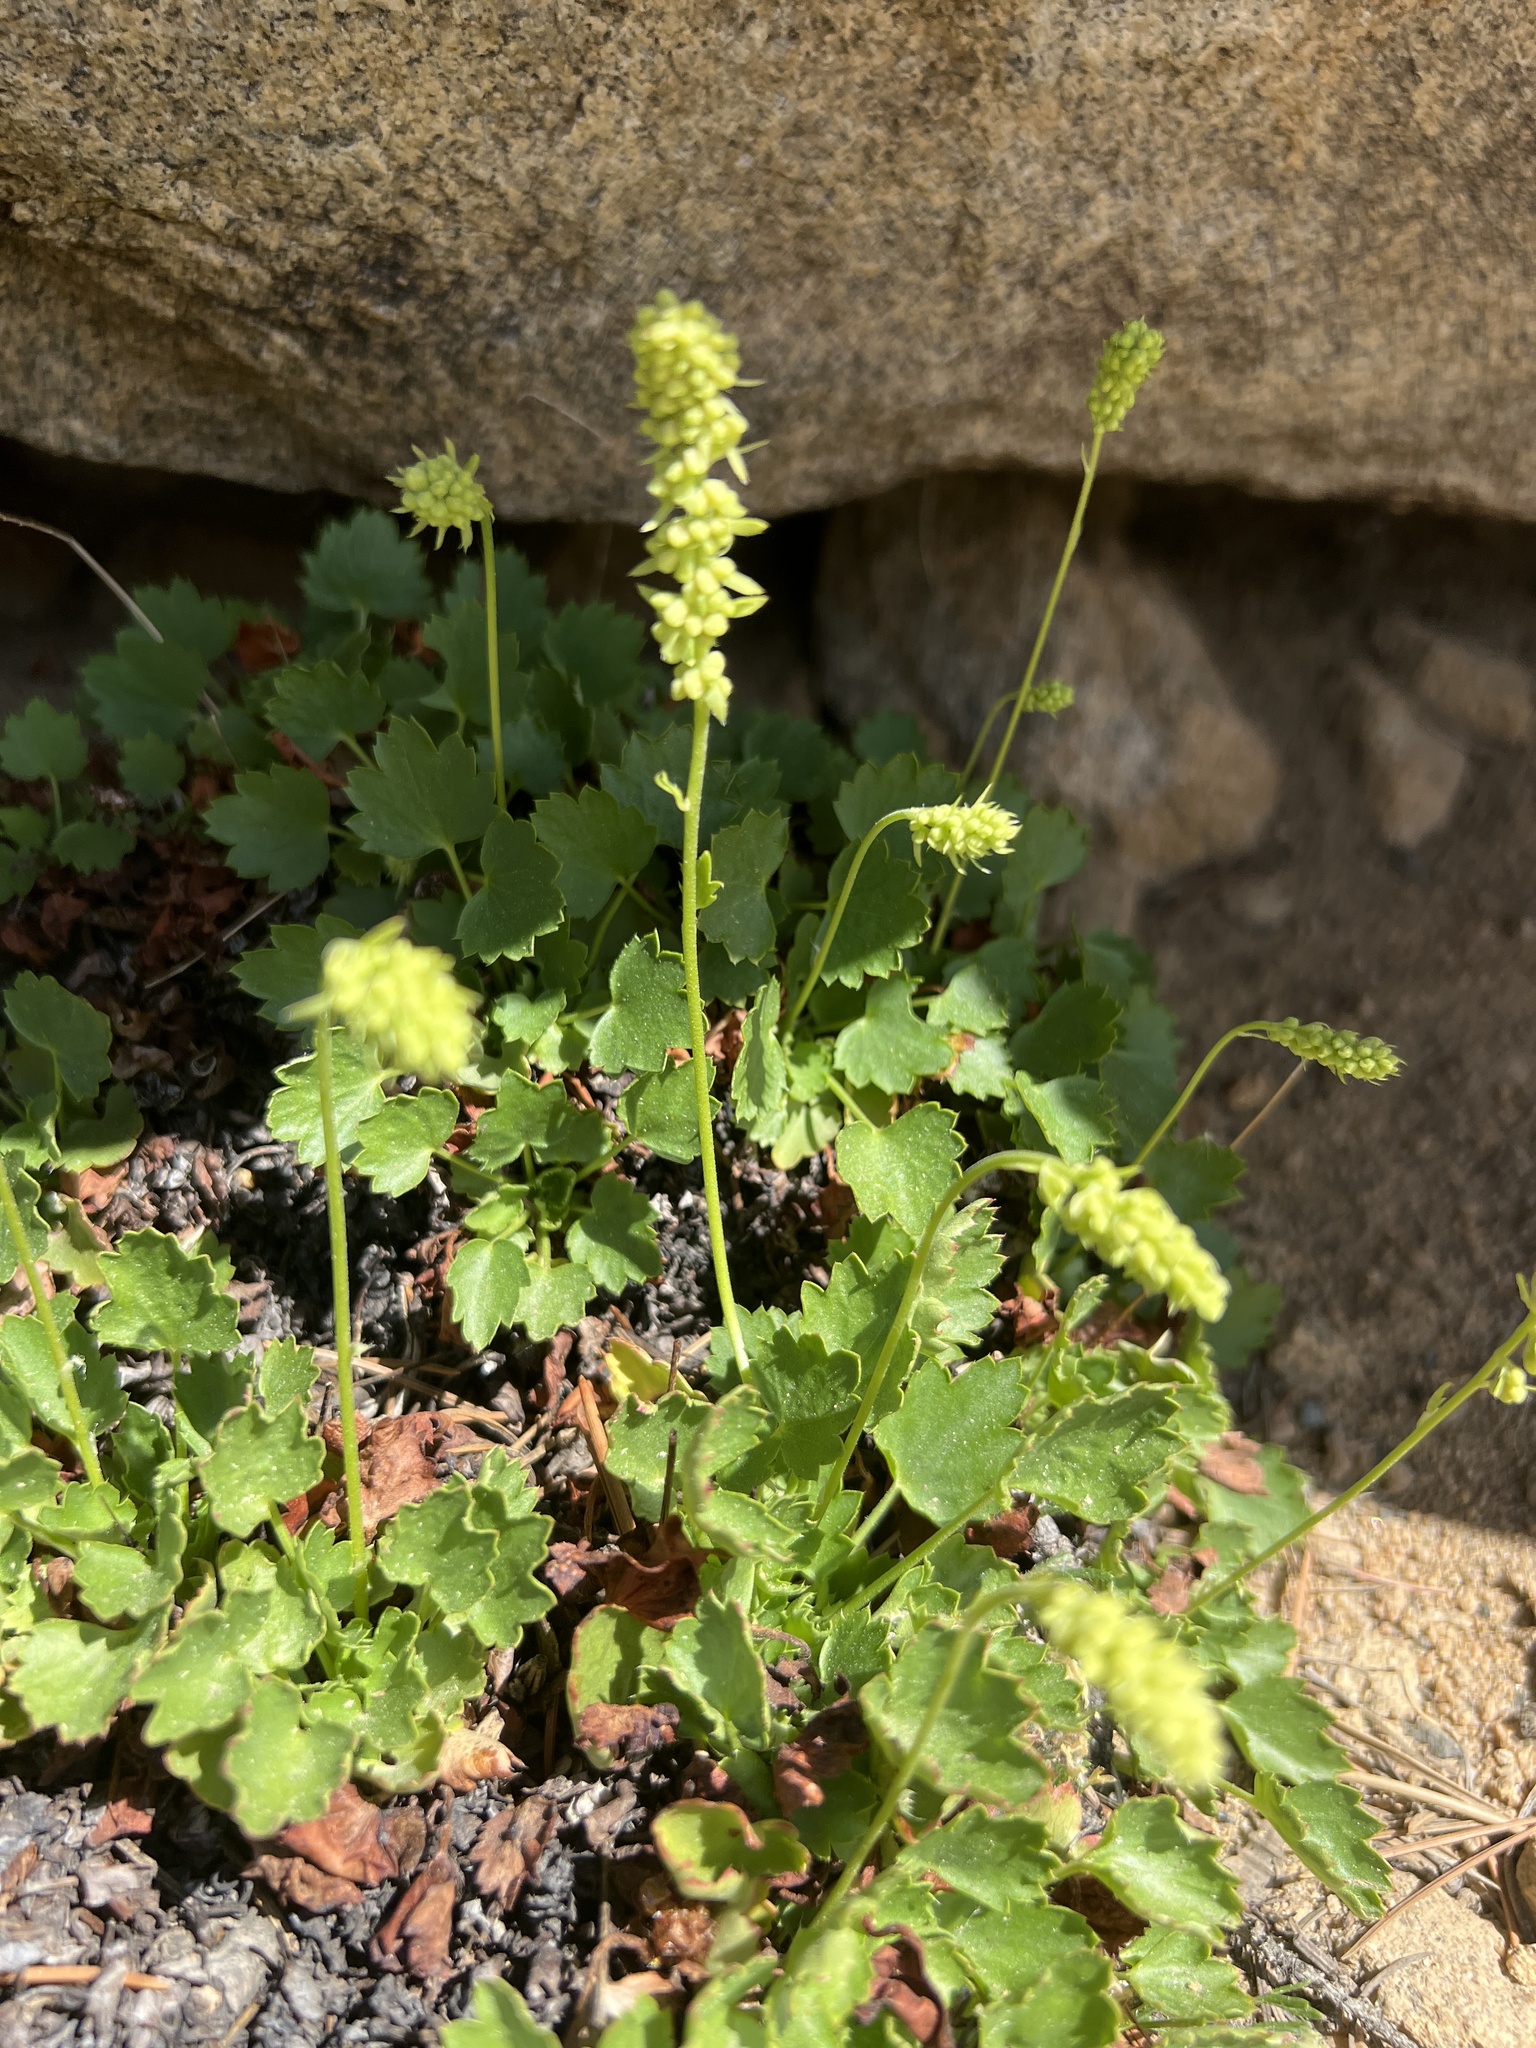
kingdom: Plantae
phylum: Tracheophyta
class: Magnoliopsida
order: Saxifragales
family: Saxifragaceae
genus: Heuchera
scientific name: Heuchera bracteata
